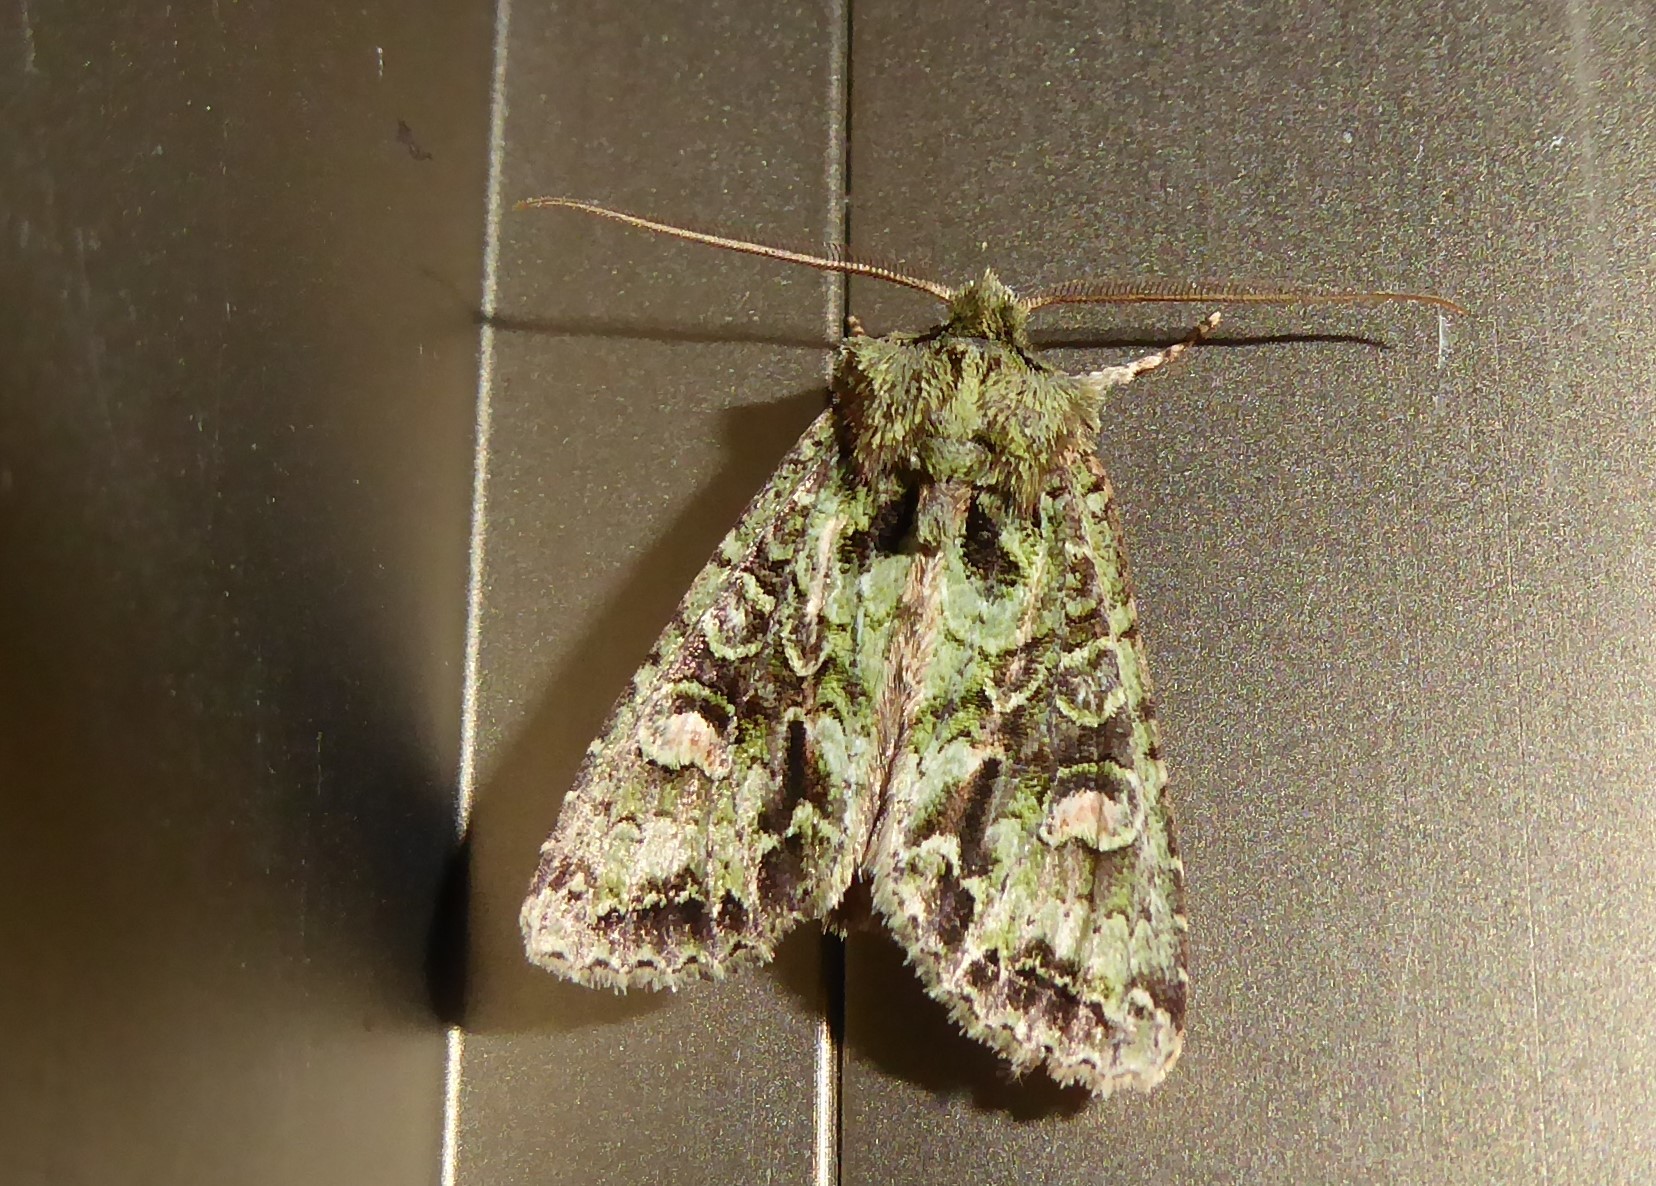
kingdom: Animalia
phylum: Arthropoda
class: Insecta
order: Lepidoptera
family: Noctuidae
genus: Ichneutica
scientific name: Ichneutica
